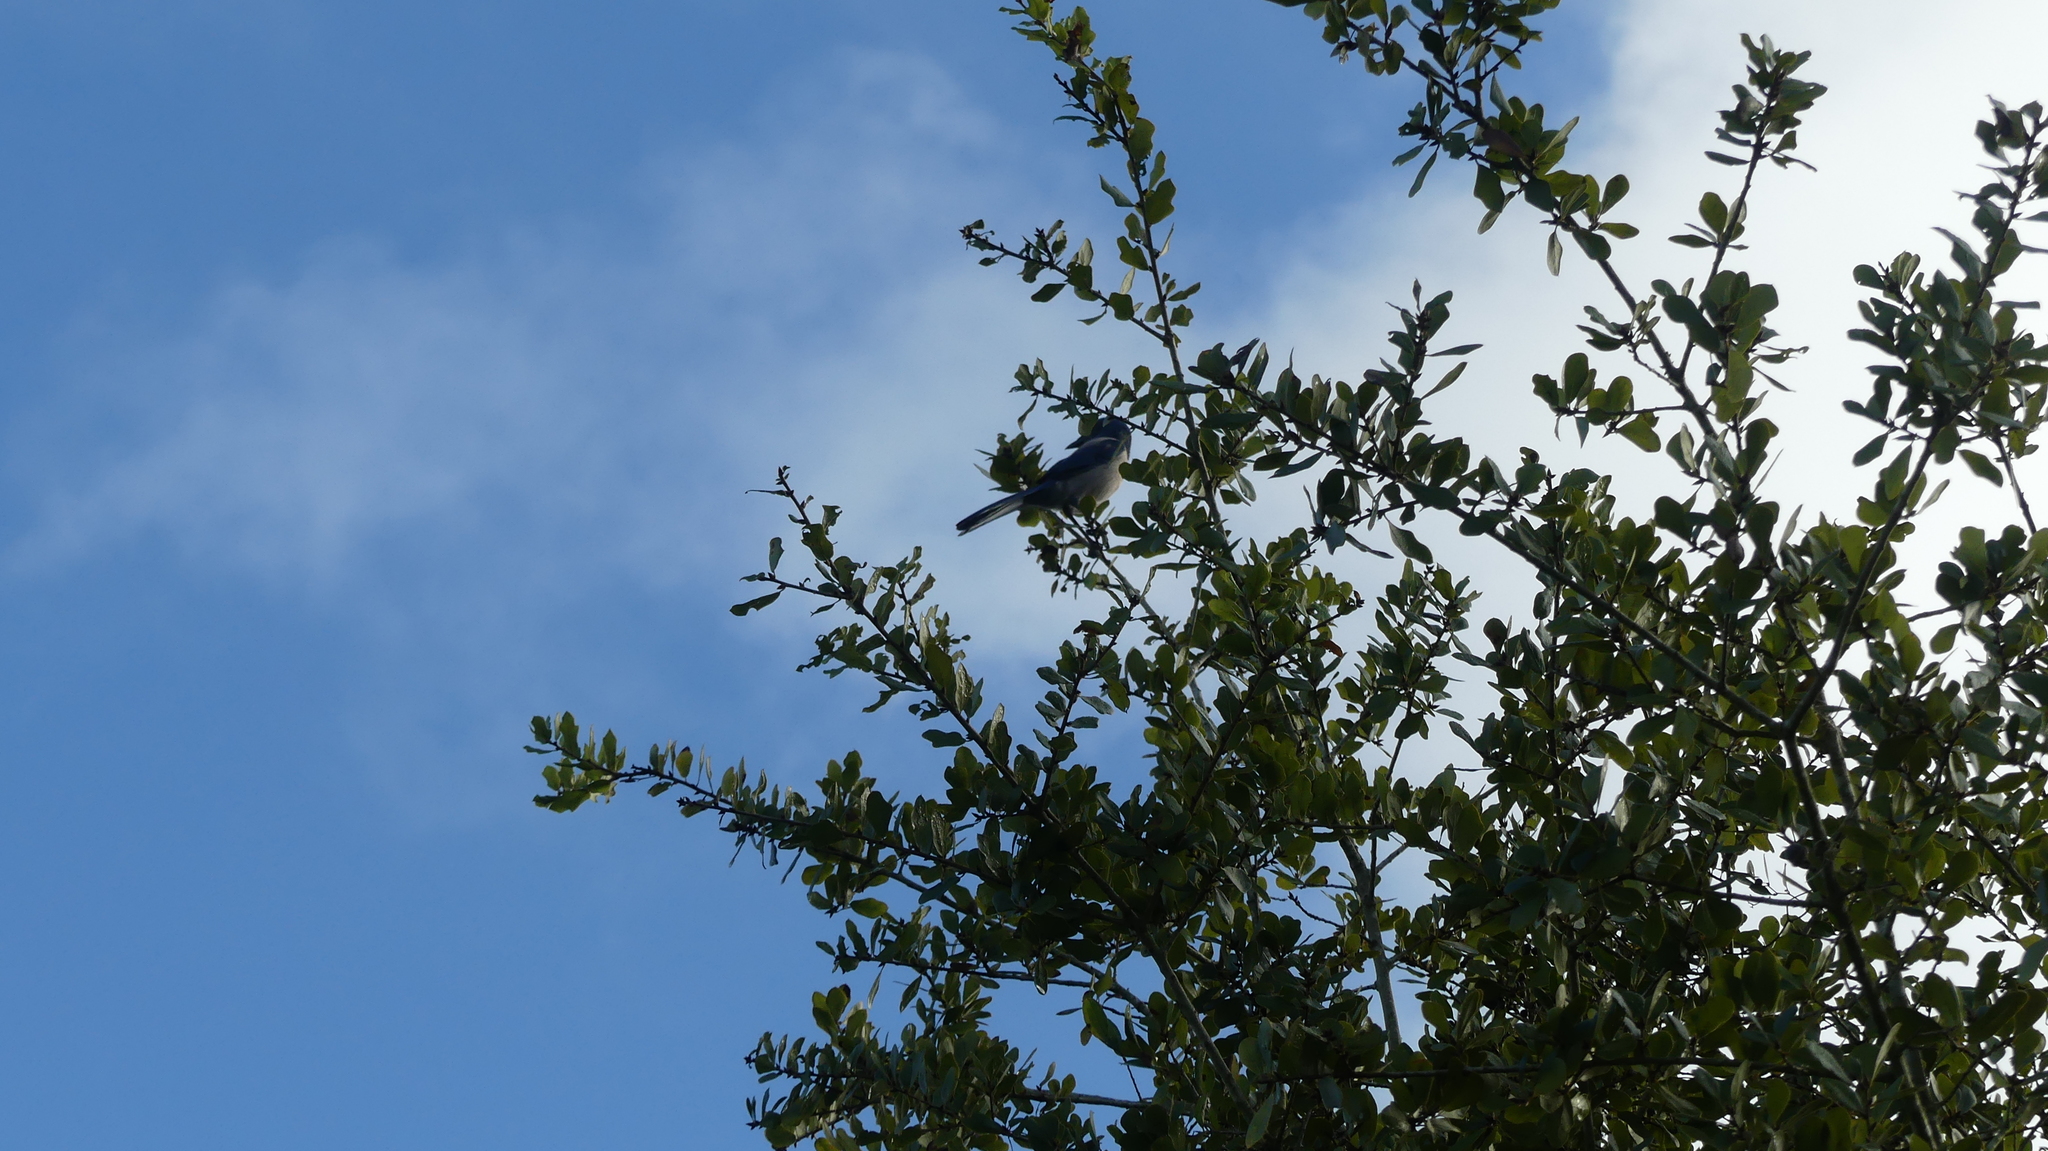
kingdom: Animalia
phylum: Chordata
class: Aves
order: Passeriformes
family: Corvidae
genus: Aphelocoma
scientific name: Aphelocoma coerulescens
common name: Florida scrub jay
